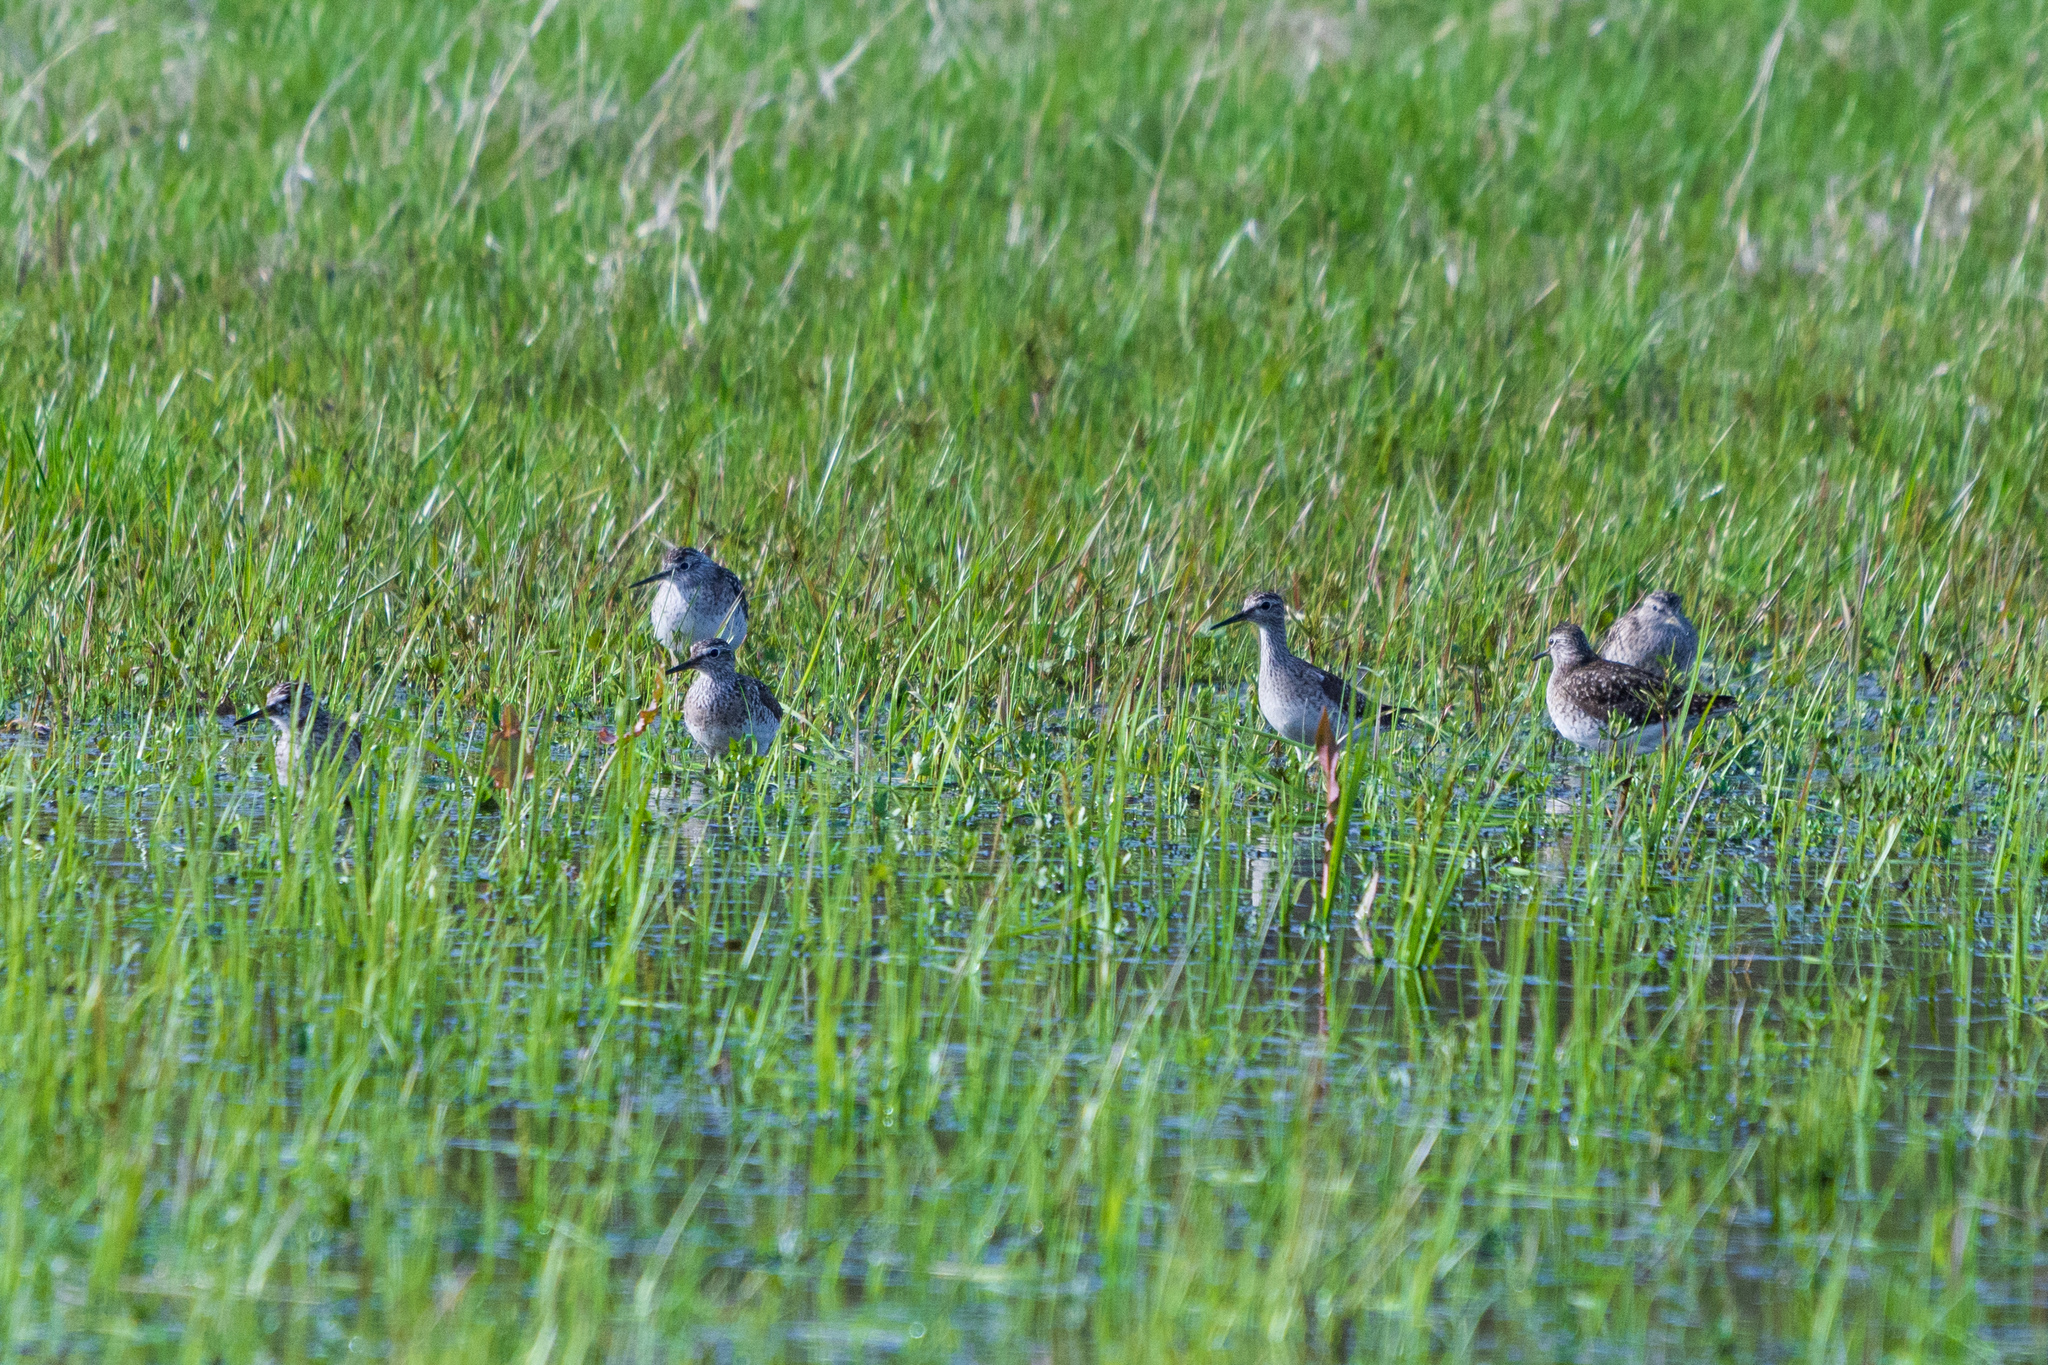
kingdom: Animalia
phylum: Chordata
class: Aves
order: Charadriiformes
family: Scolopacidae
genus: Tringa
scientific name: Tringa glareola
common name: Wood sandpiper
